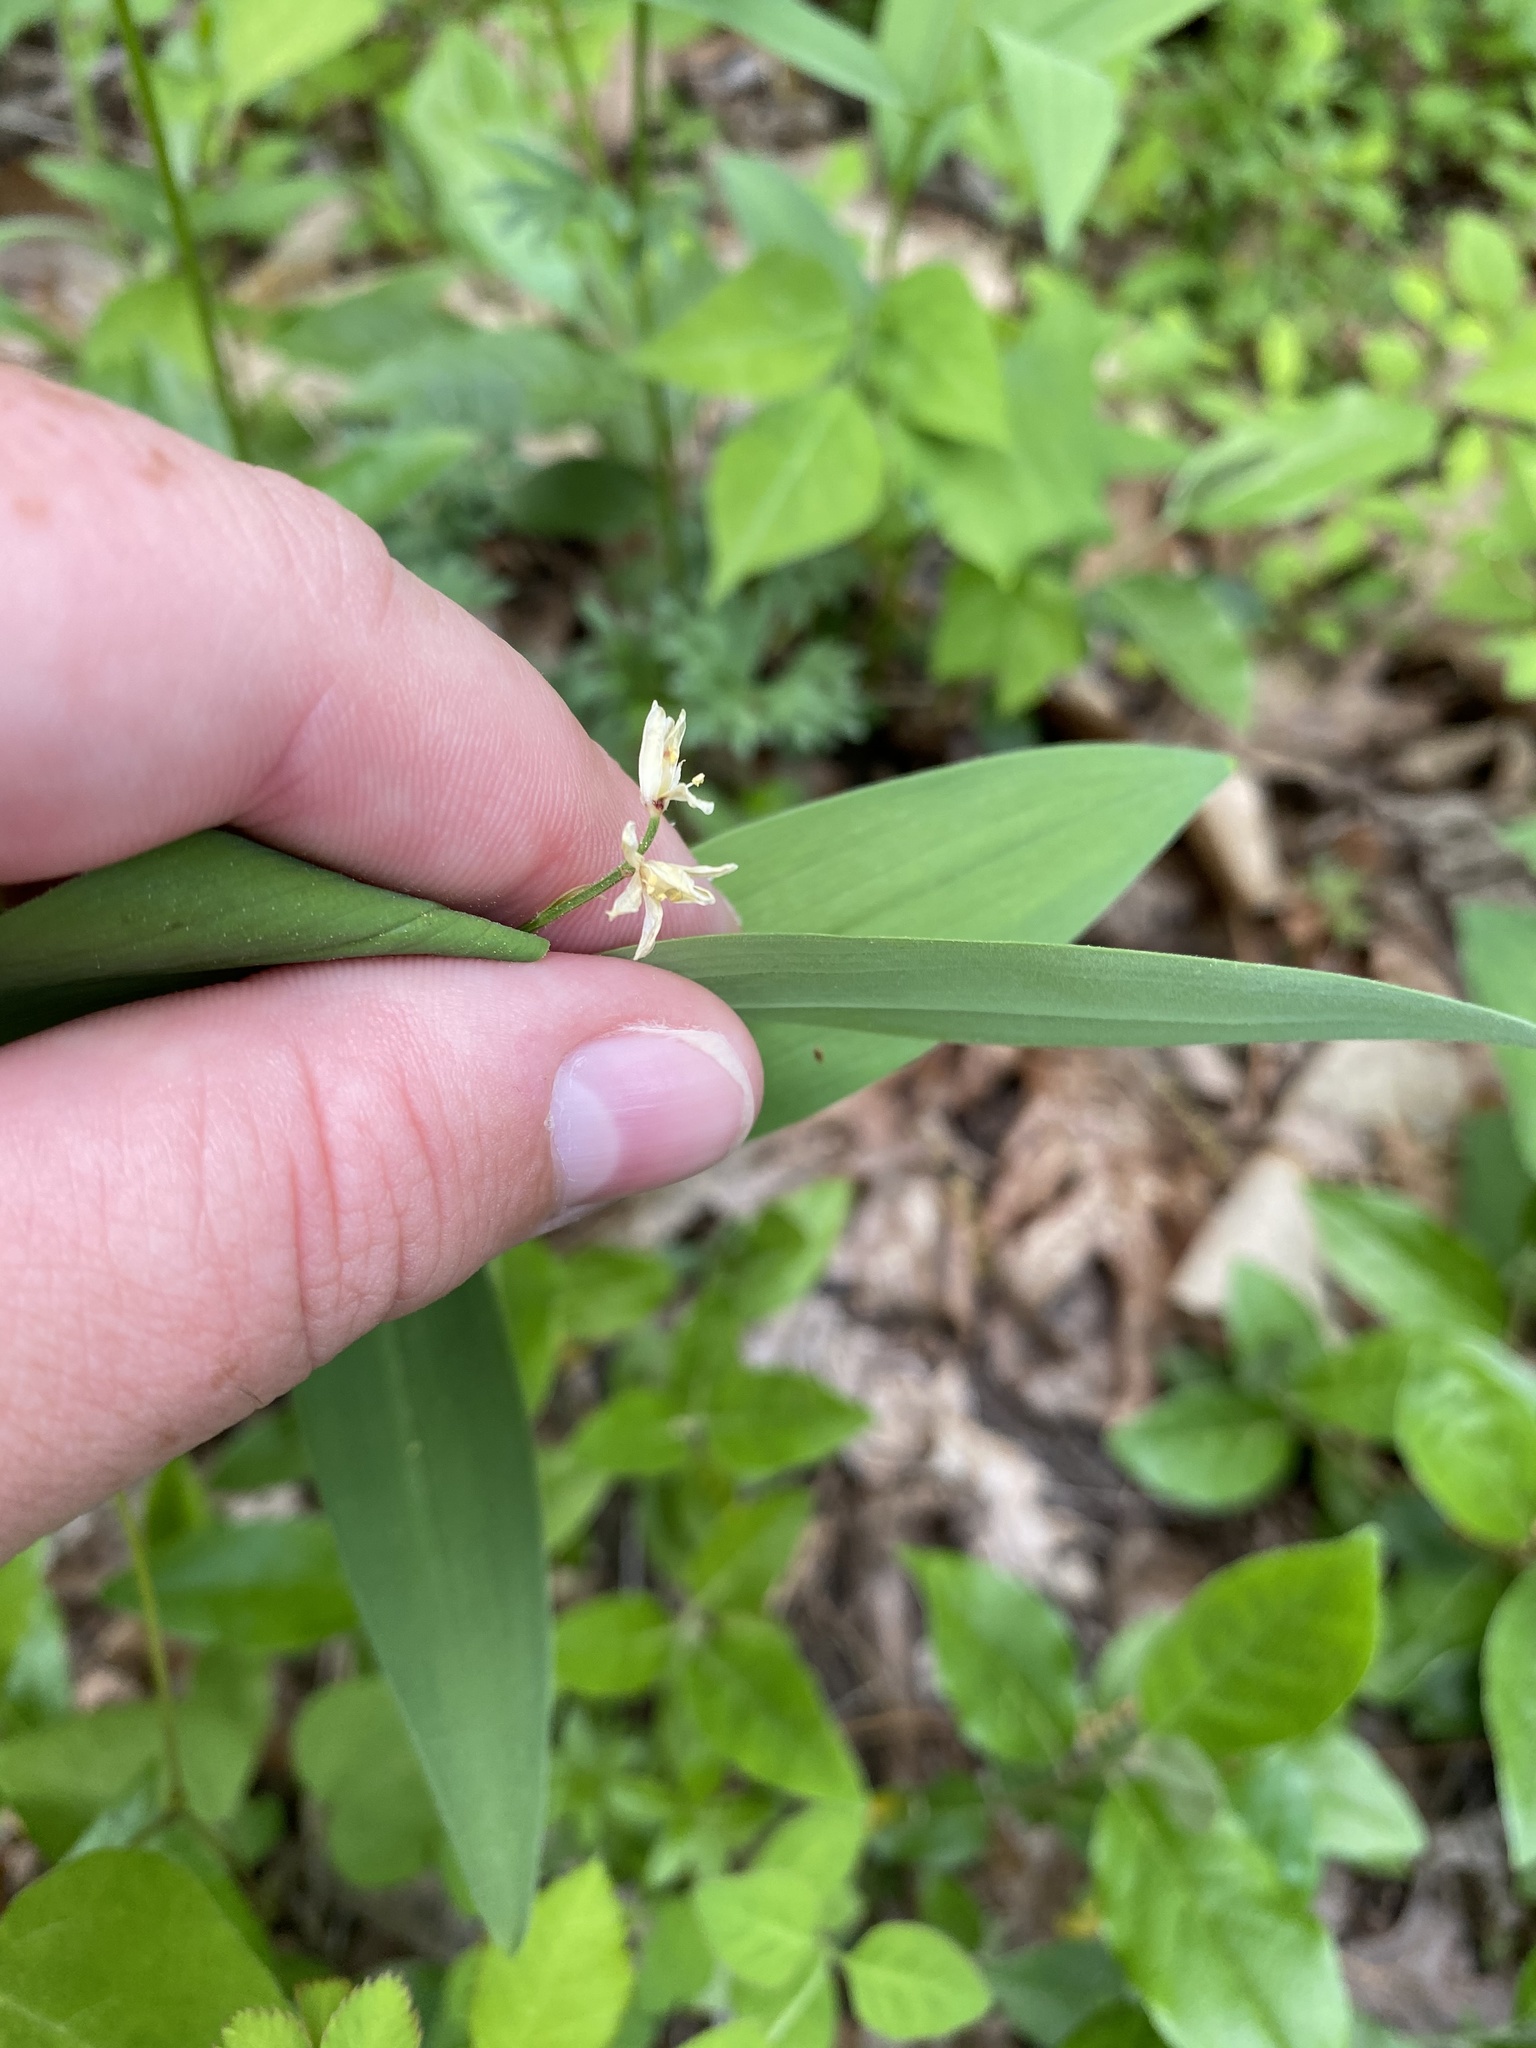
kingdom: Plantae
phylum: Tracheophyta
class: Liliopsida
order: Asparagales
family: Asparagaceae
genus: Maianthemum
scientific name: Maianthemum stellatum
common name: Little false solomon's seal
